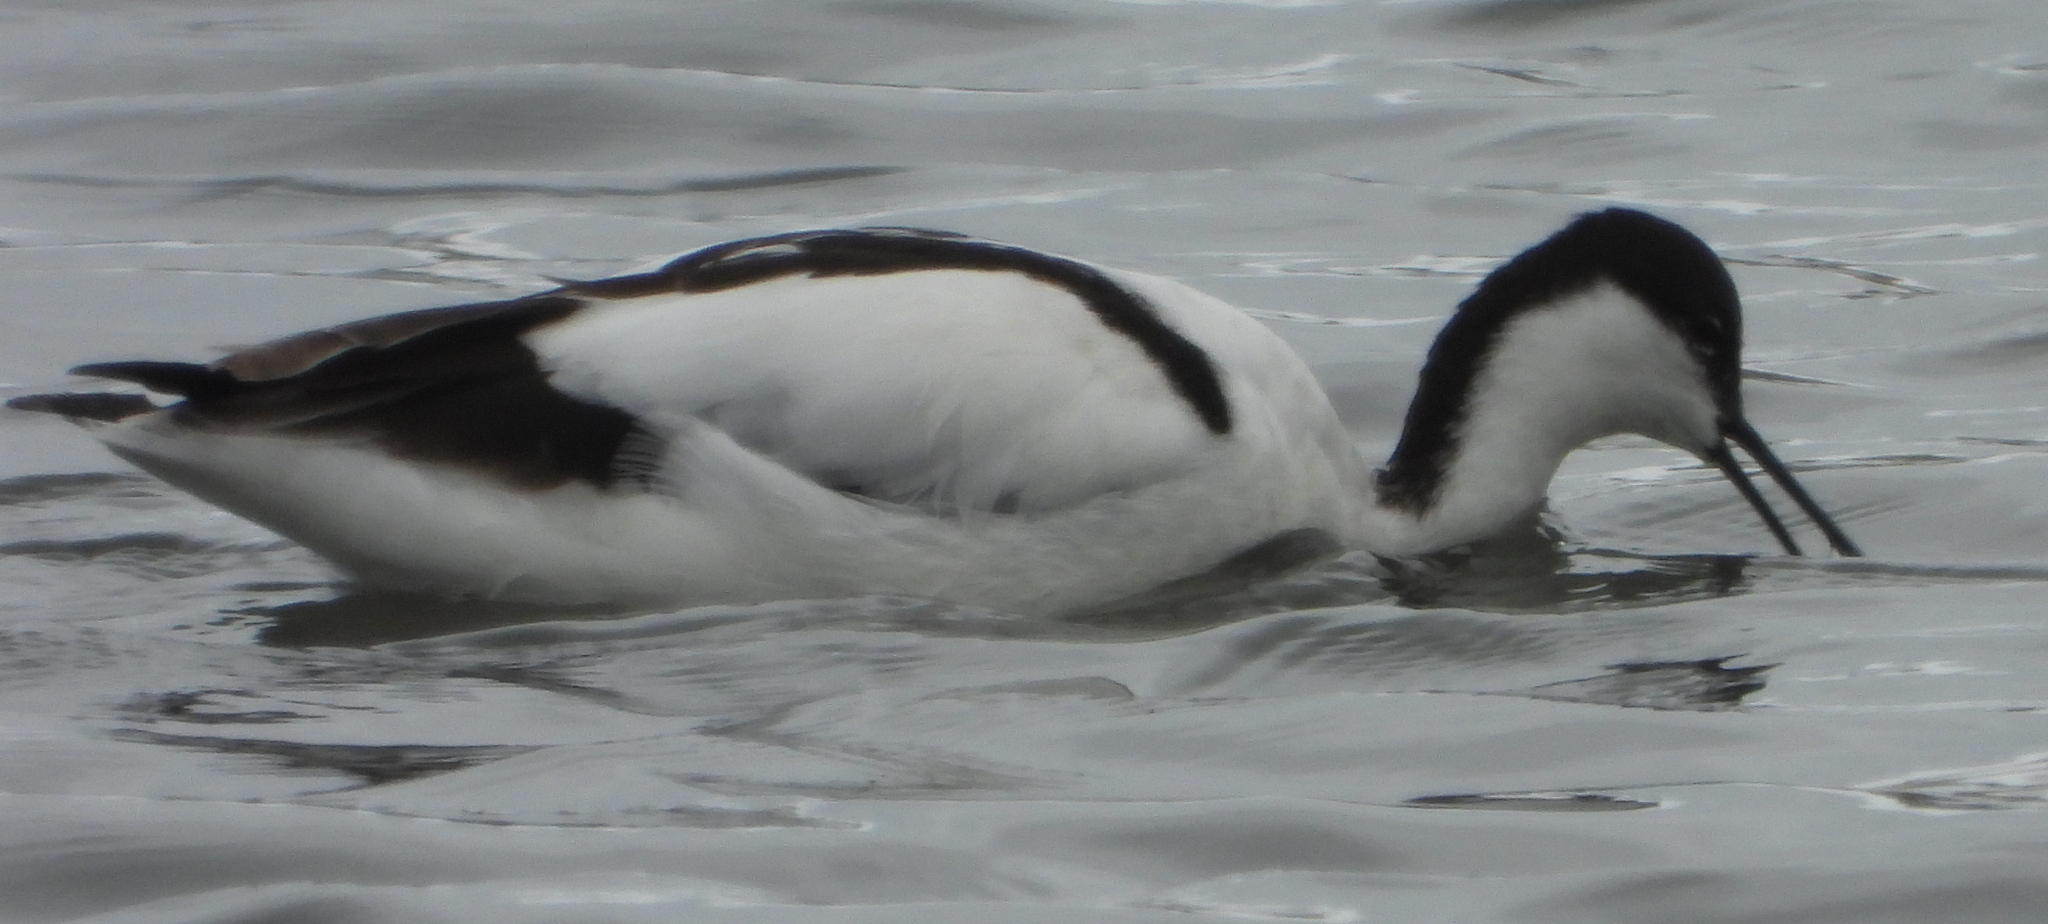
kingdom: Animalia
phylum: Chordata
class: Aves
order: Charadriiformes
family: Recurvirostridae
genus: Recurvirostra
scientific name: Recurvirostra avosetta
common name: Pied avocet
